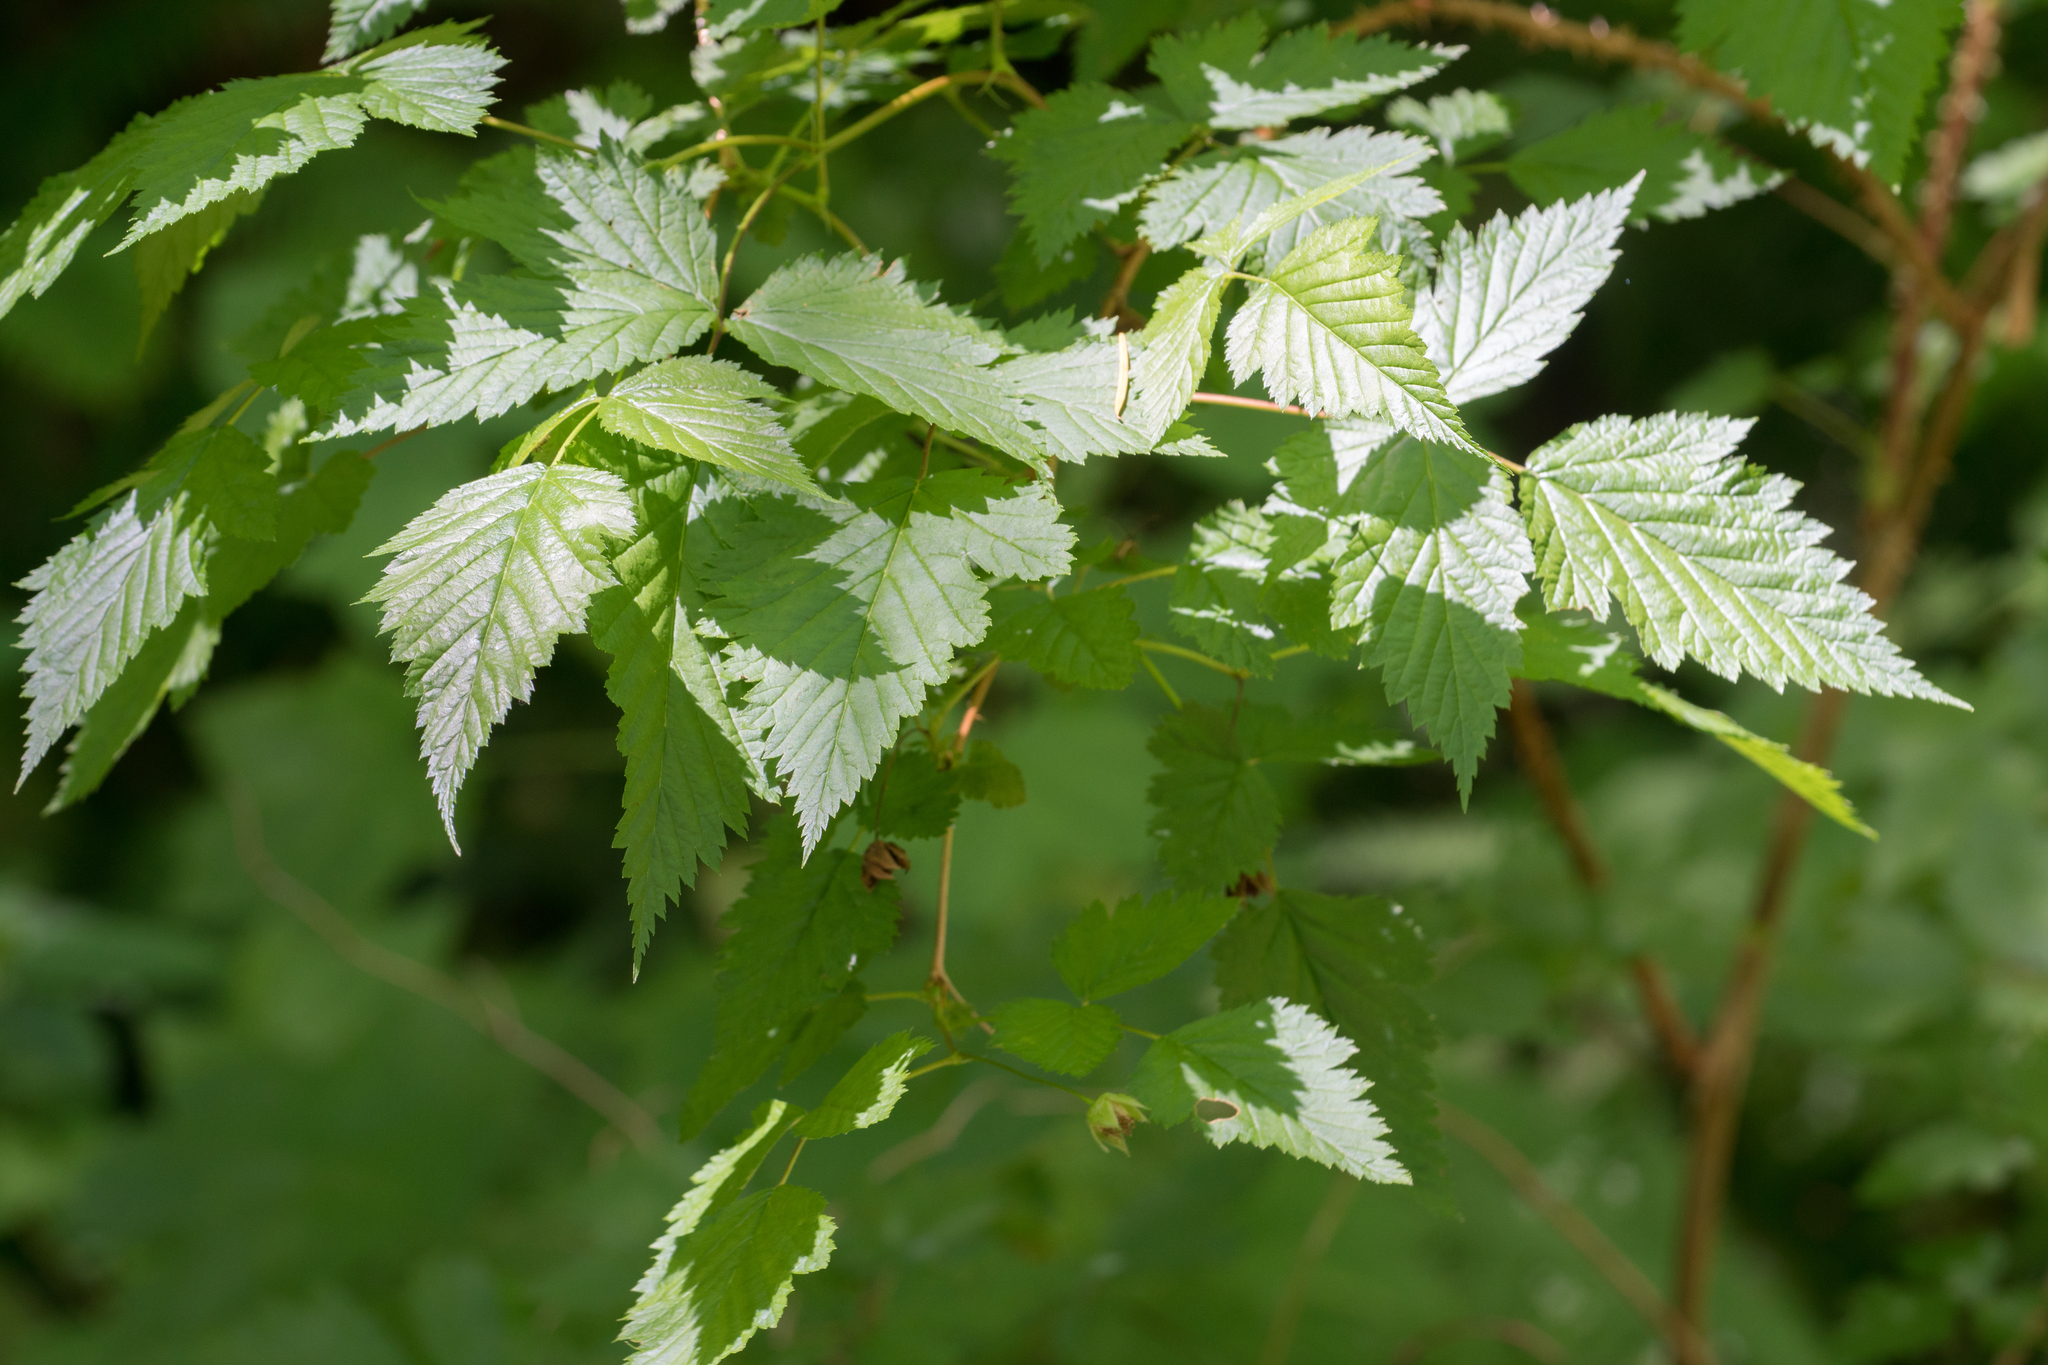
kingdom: Plantae
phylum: Tracheophyta
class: Magnoliopsida
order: Rosales
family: Rosaceae
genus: Rubus
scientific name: Rubus spectabilis
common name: Salmonberry
